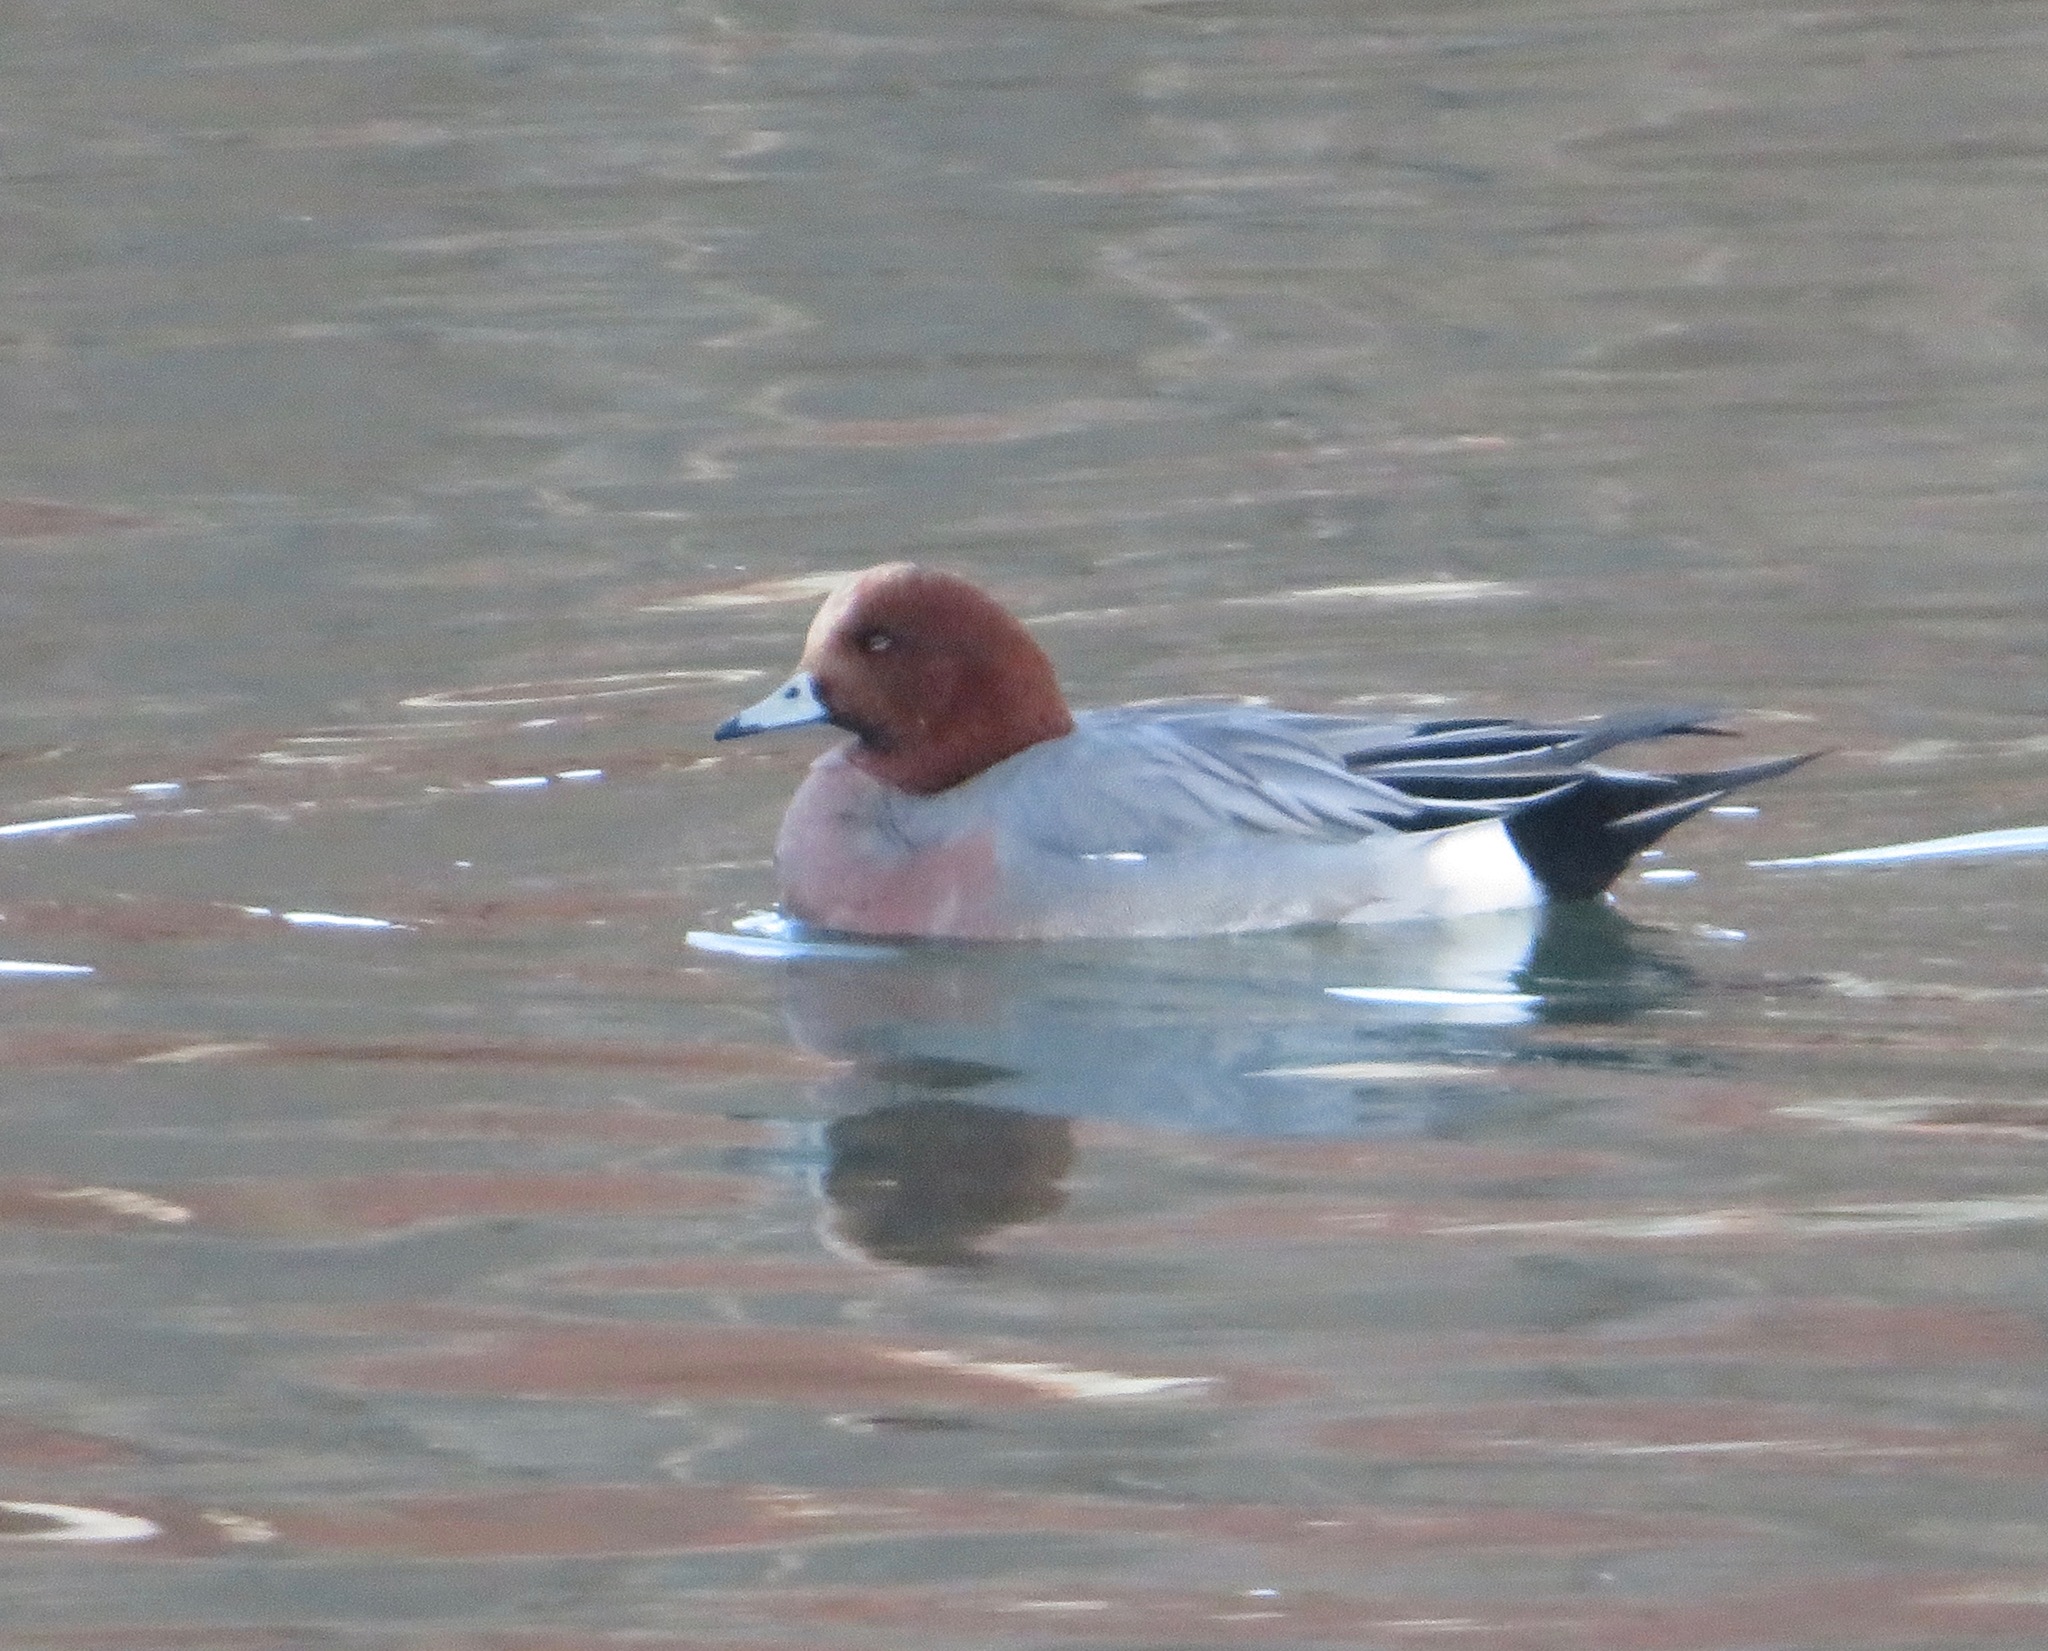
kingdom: Animalia
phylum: Chordata
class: Aves
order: Anseriformes
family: Anatidae
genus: Mareca
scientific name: Mareca penelope
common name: Eurasian wigeon
